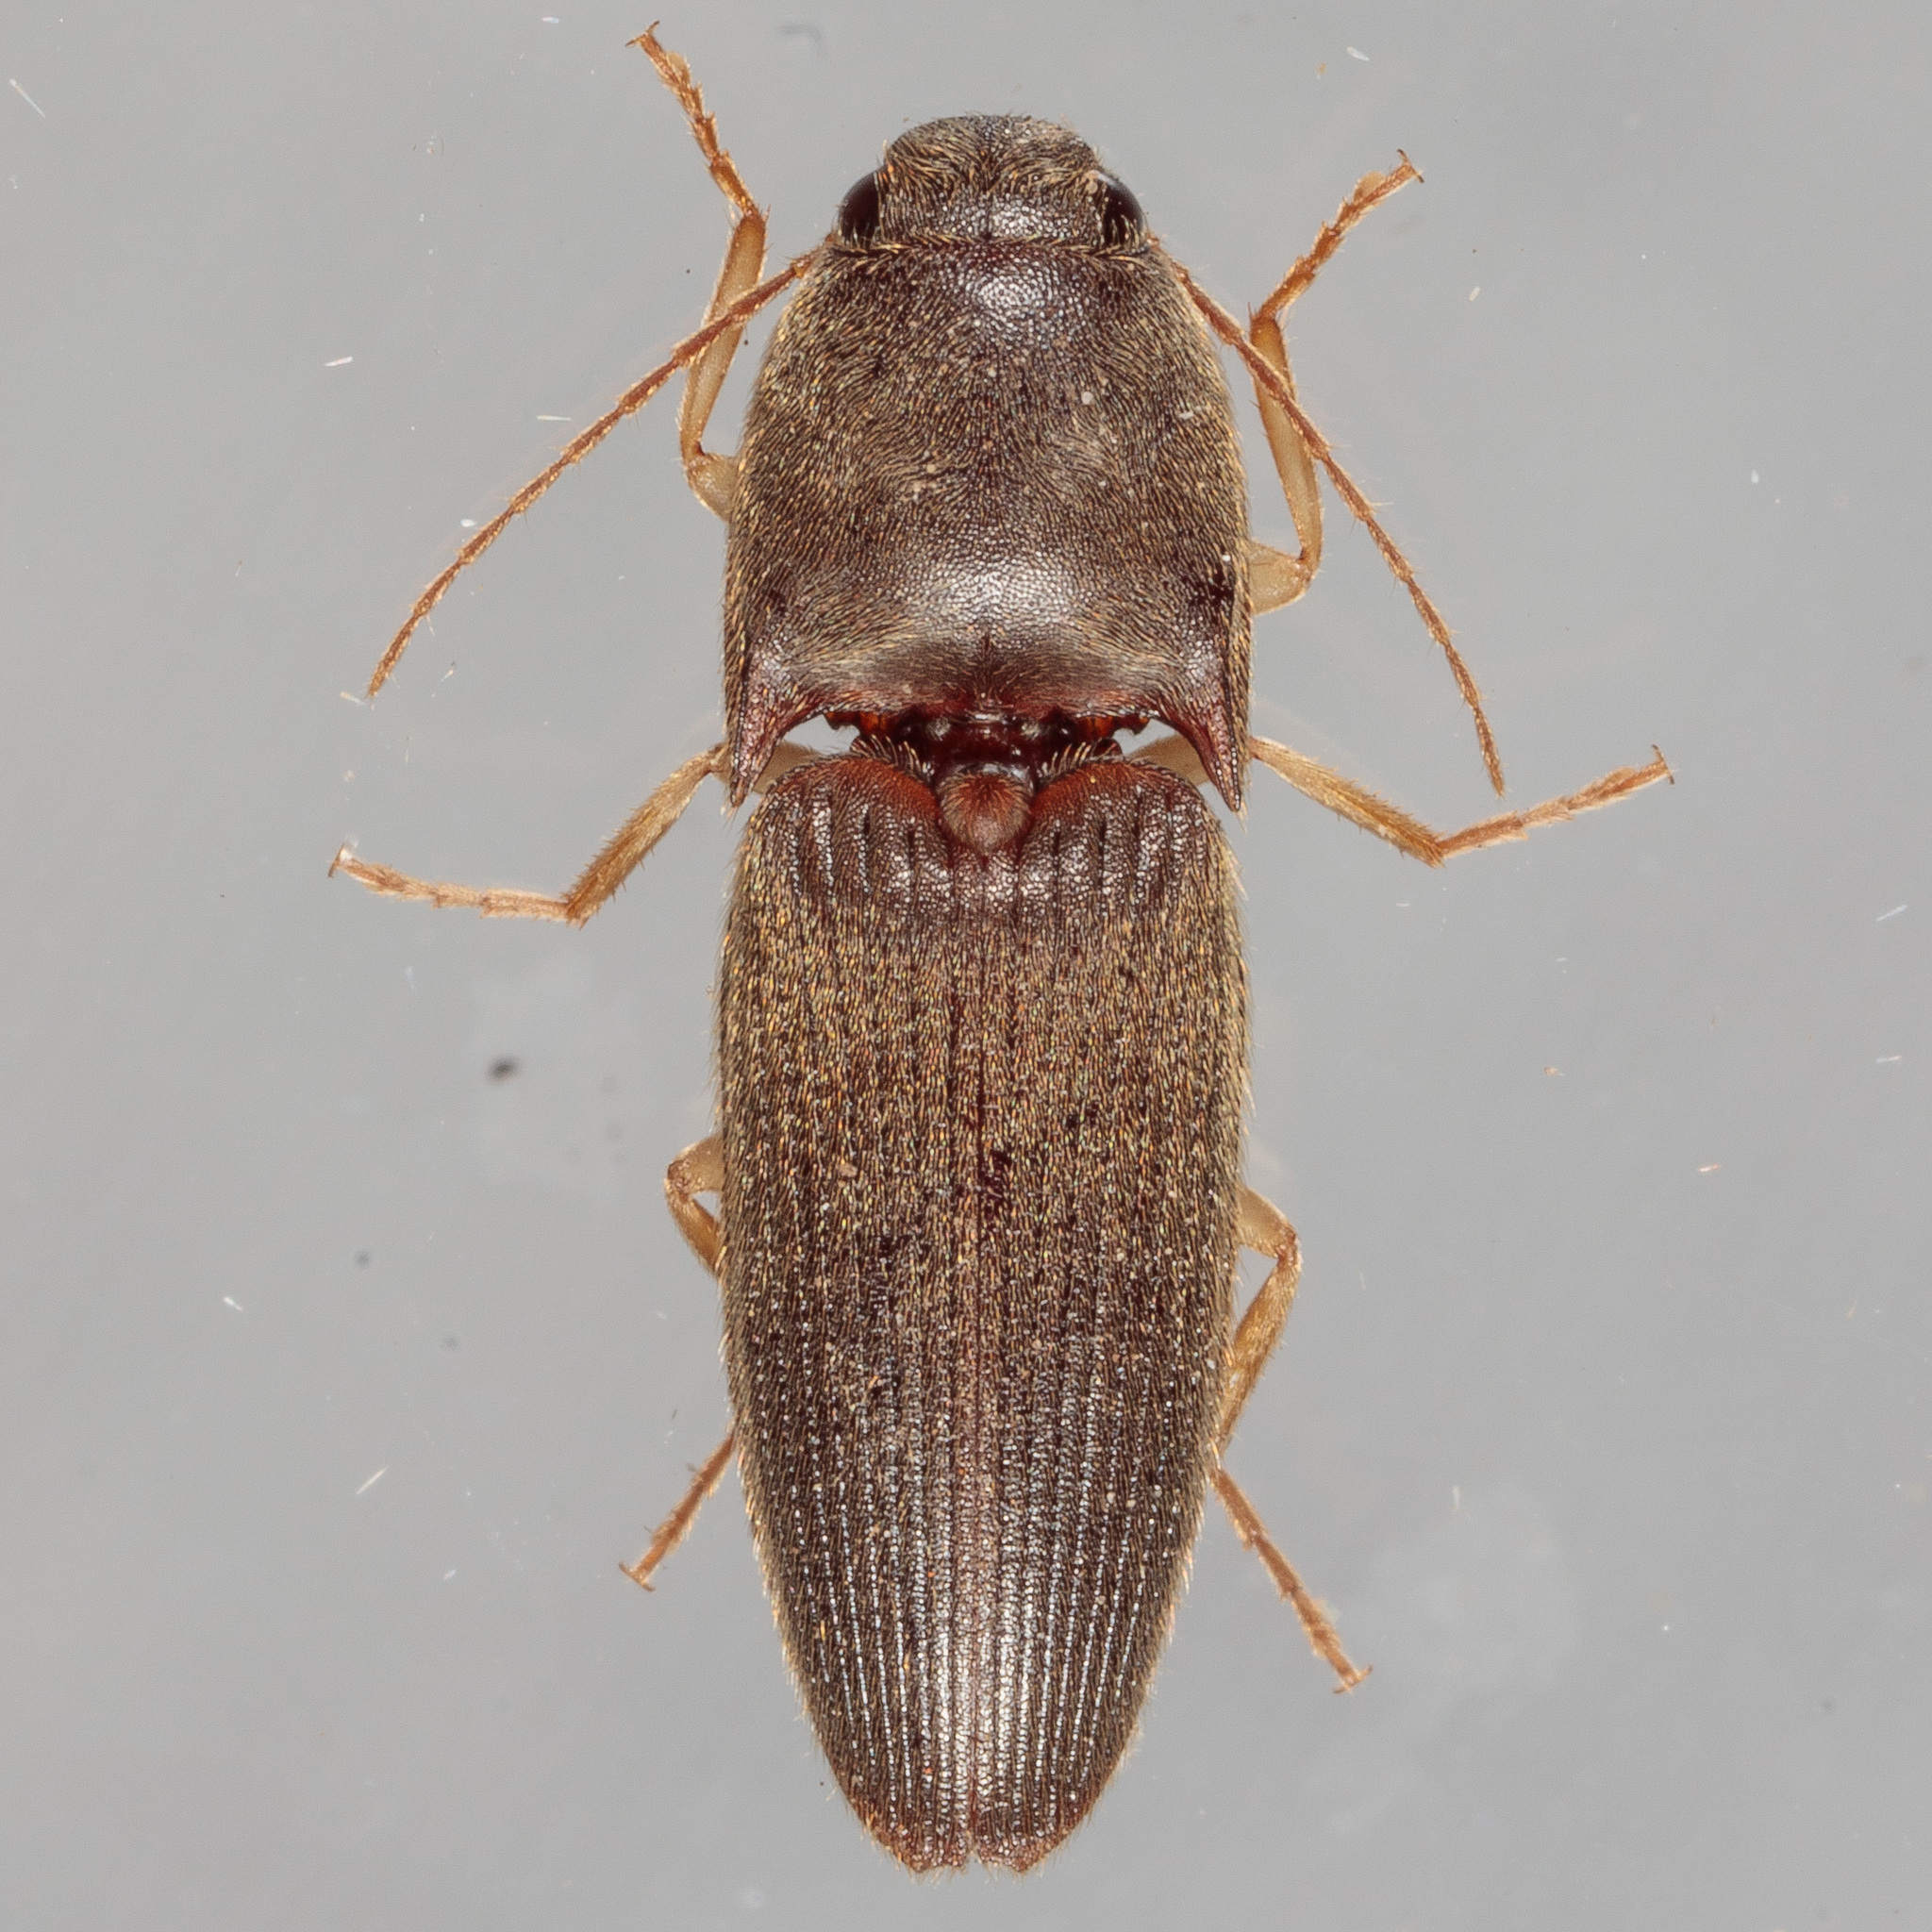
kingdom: Animalia
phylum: Arthropoda
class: Insecta
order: Coleoptera
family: Elateridae
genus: Conoderus
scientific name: Conoderus exsul
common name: Click beetle
